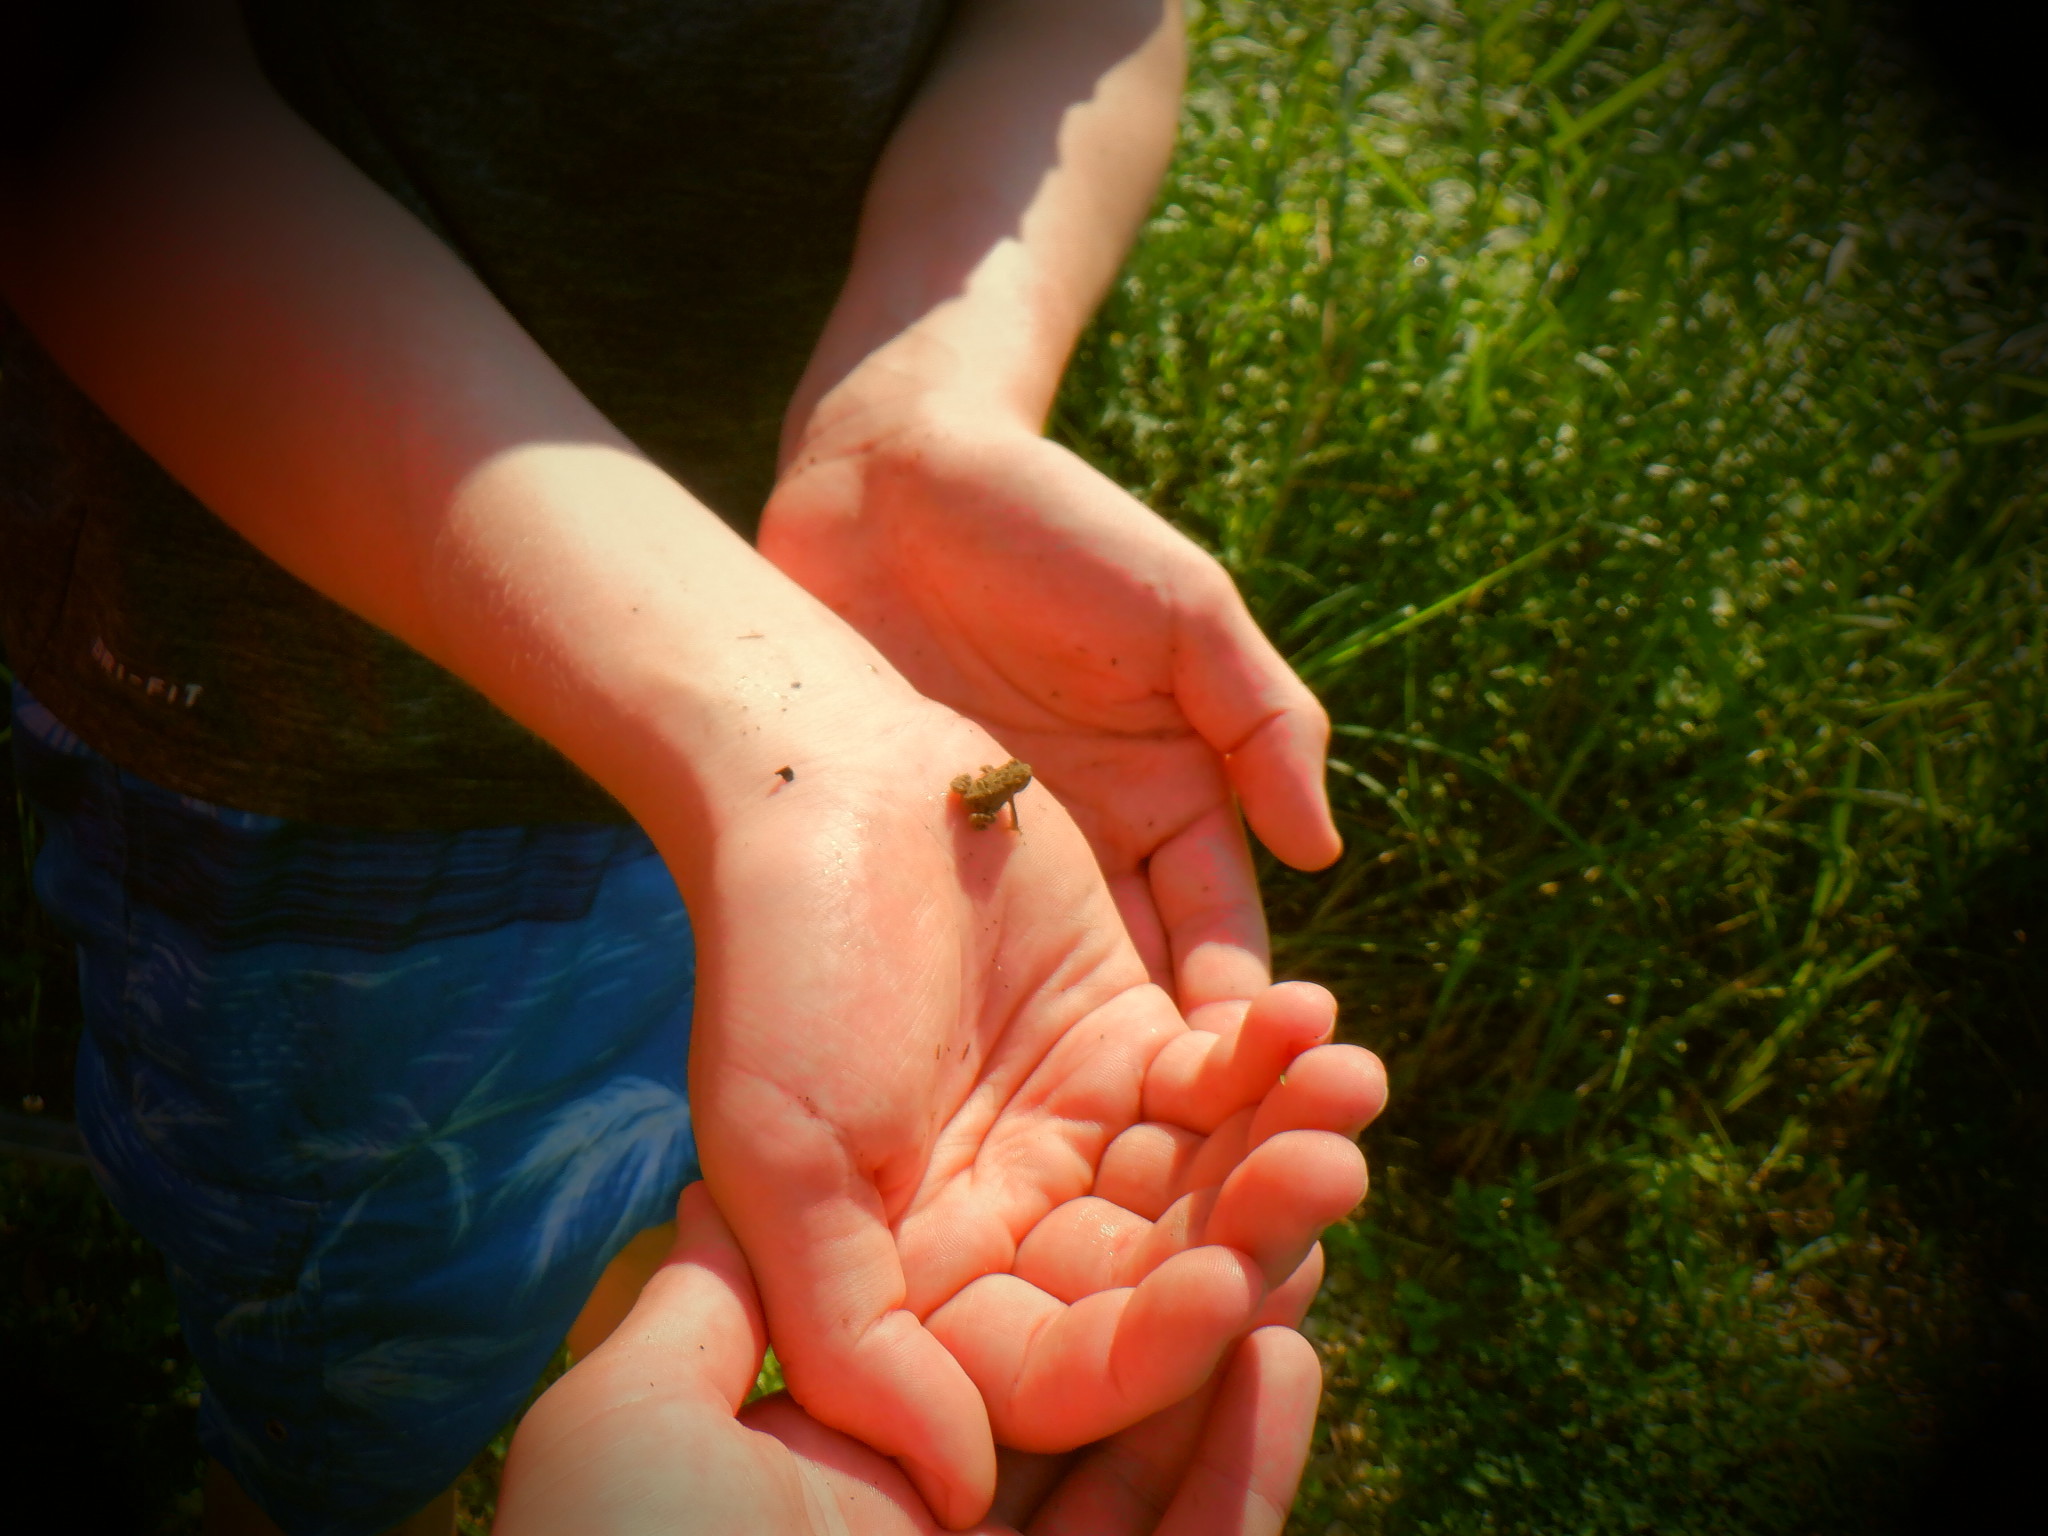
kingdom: Animalia
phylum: Chordata
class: Amphibia
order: Anura
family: Bufonidae
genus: Anaxyrus
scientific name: Anaxyrus americanus
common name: American toad
